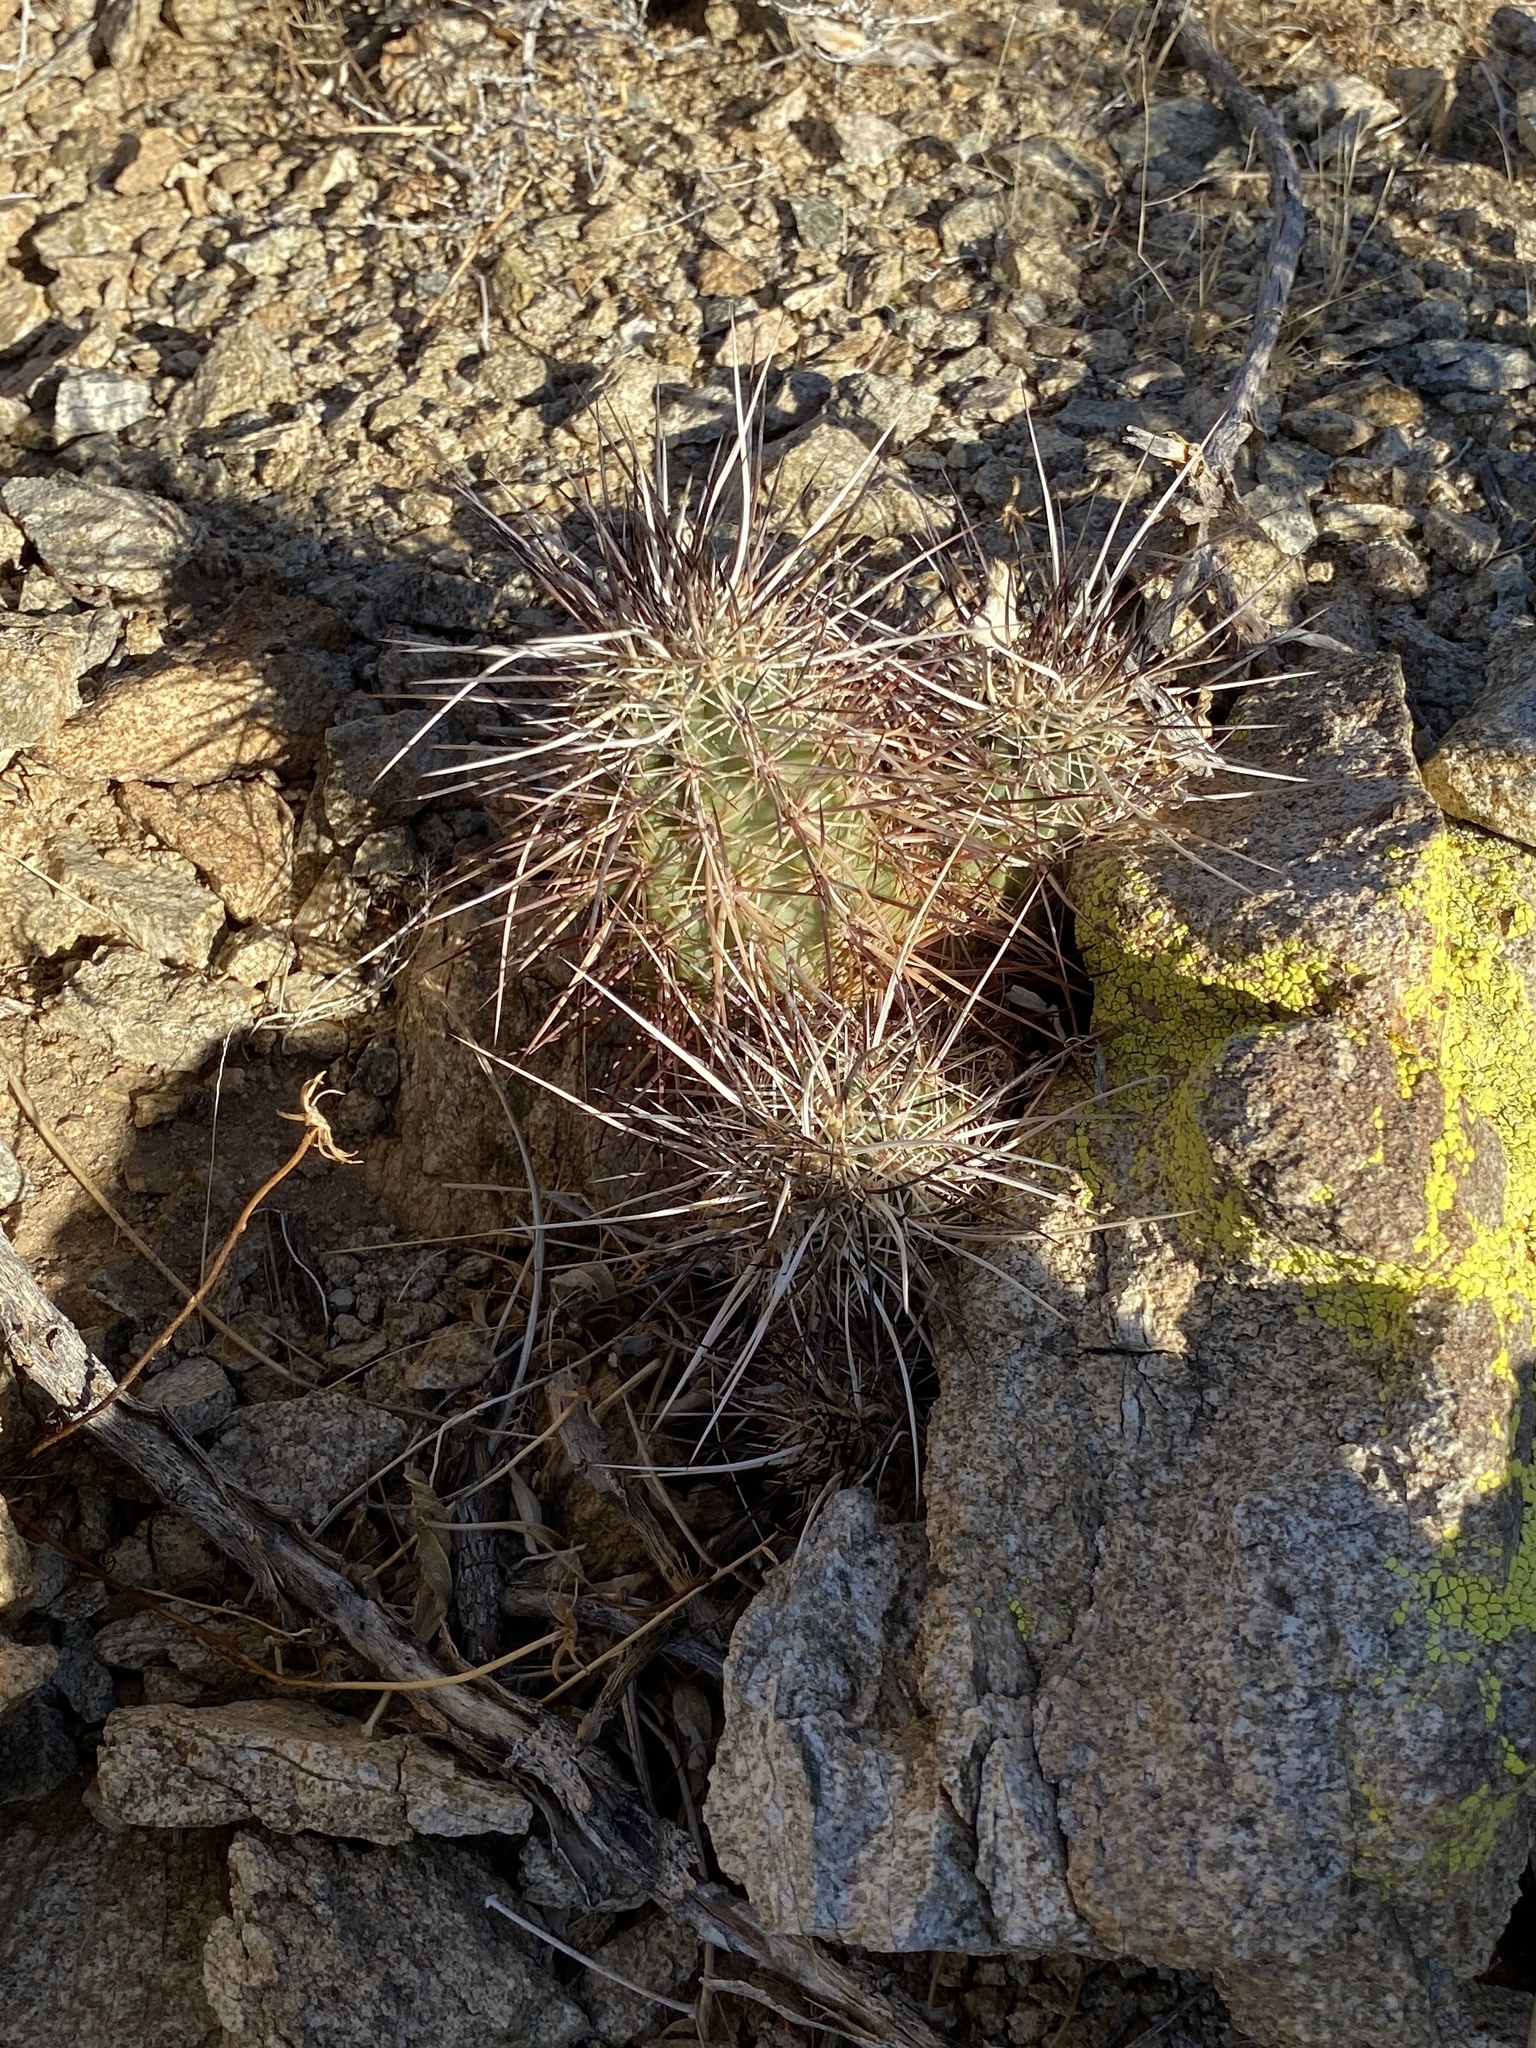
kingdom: Plantae
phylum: Tracheophyta
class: Magnoliopsida
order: Caryophyllales
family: Cactaceae
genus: Echinocereus
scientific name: Echinocereus engelmannii
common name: Engelmann's hedgehog cactus
